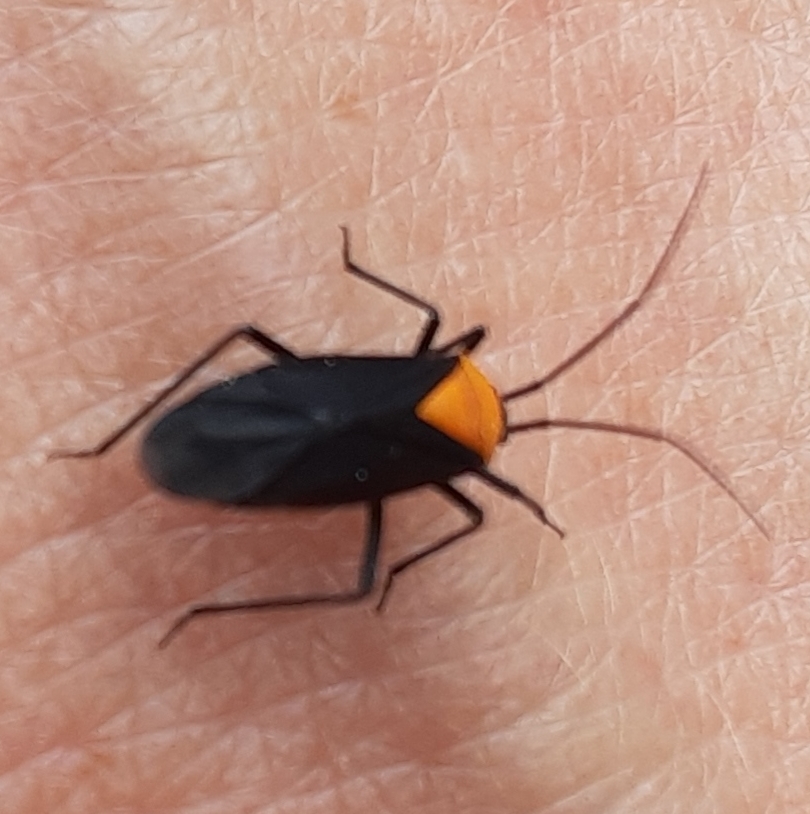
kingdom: Animalia
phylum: Arthropoda
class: Insecta
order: Hemiptera
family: Miridae
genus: Prepops
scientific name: Prepops insitivus
